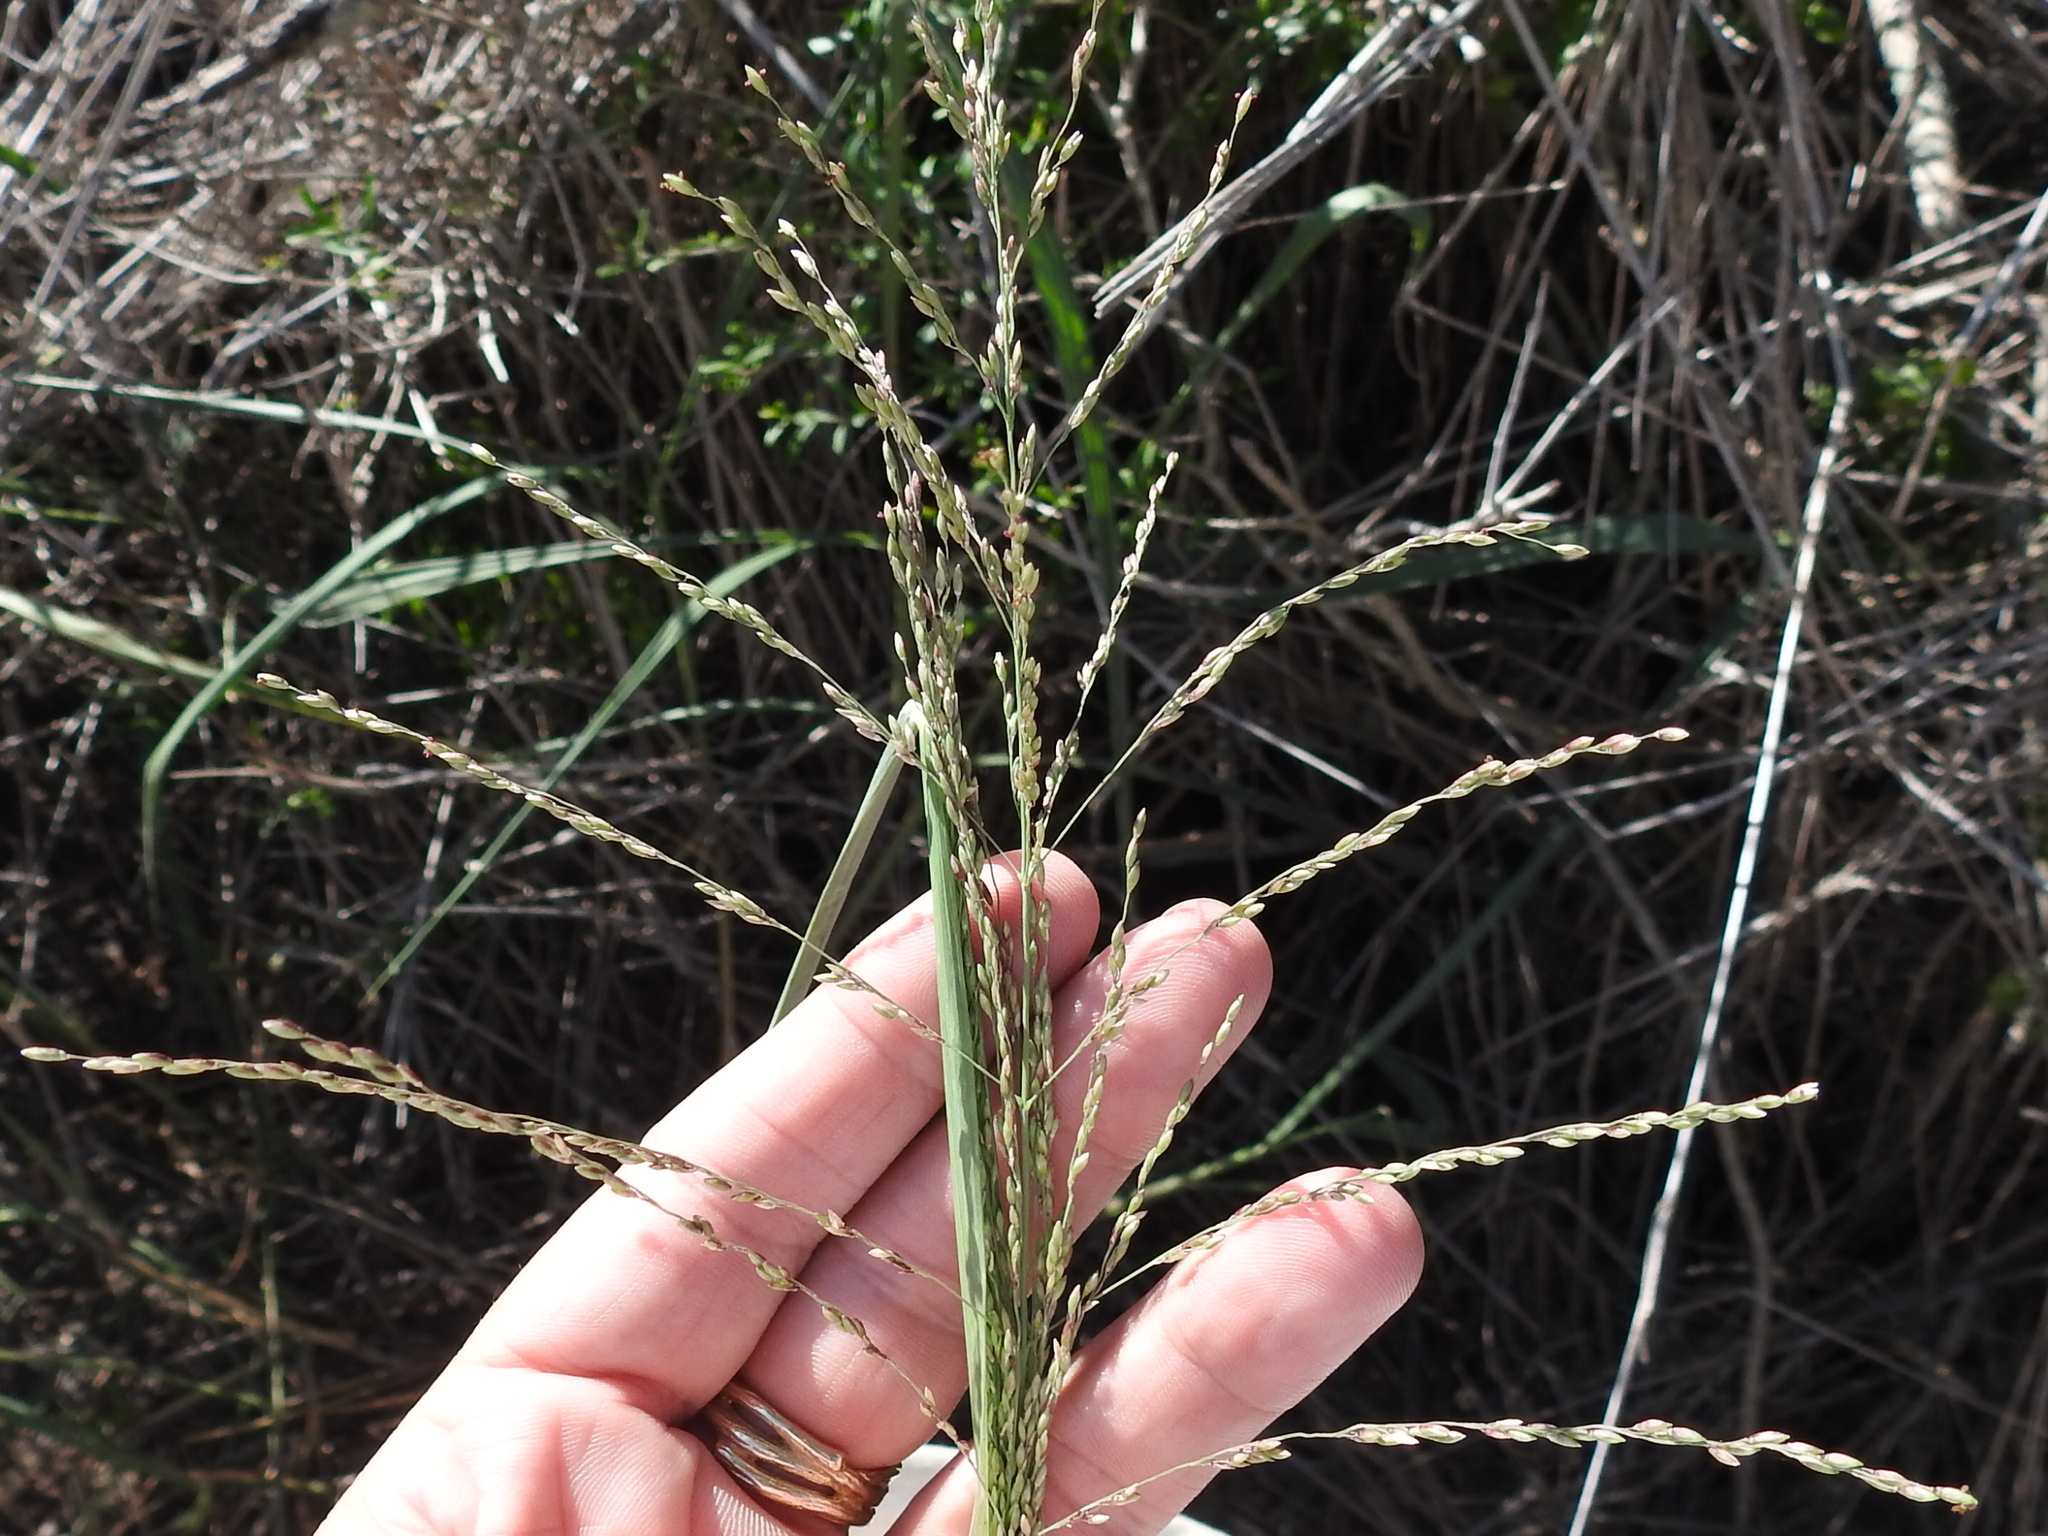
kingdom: Plantae
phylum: Tracheophyta
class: Liliopsida
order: Poales
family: Poaceae
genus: Megathyrsus
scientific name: Megathyrsus maximus
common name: Guineagrass
